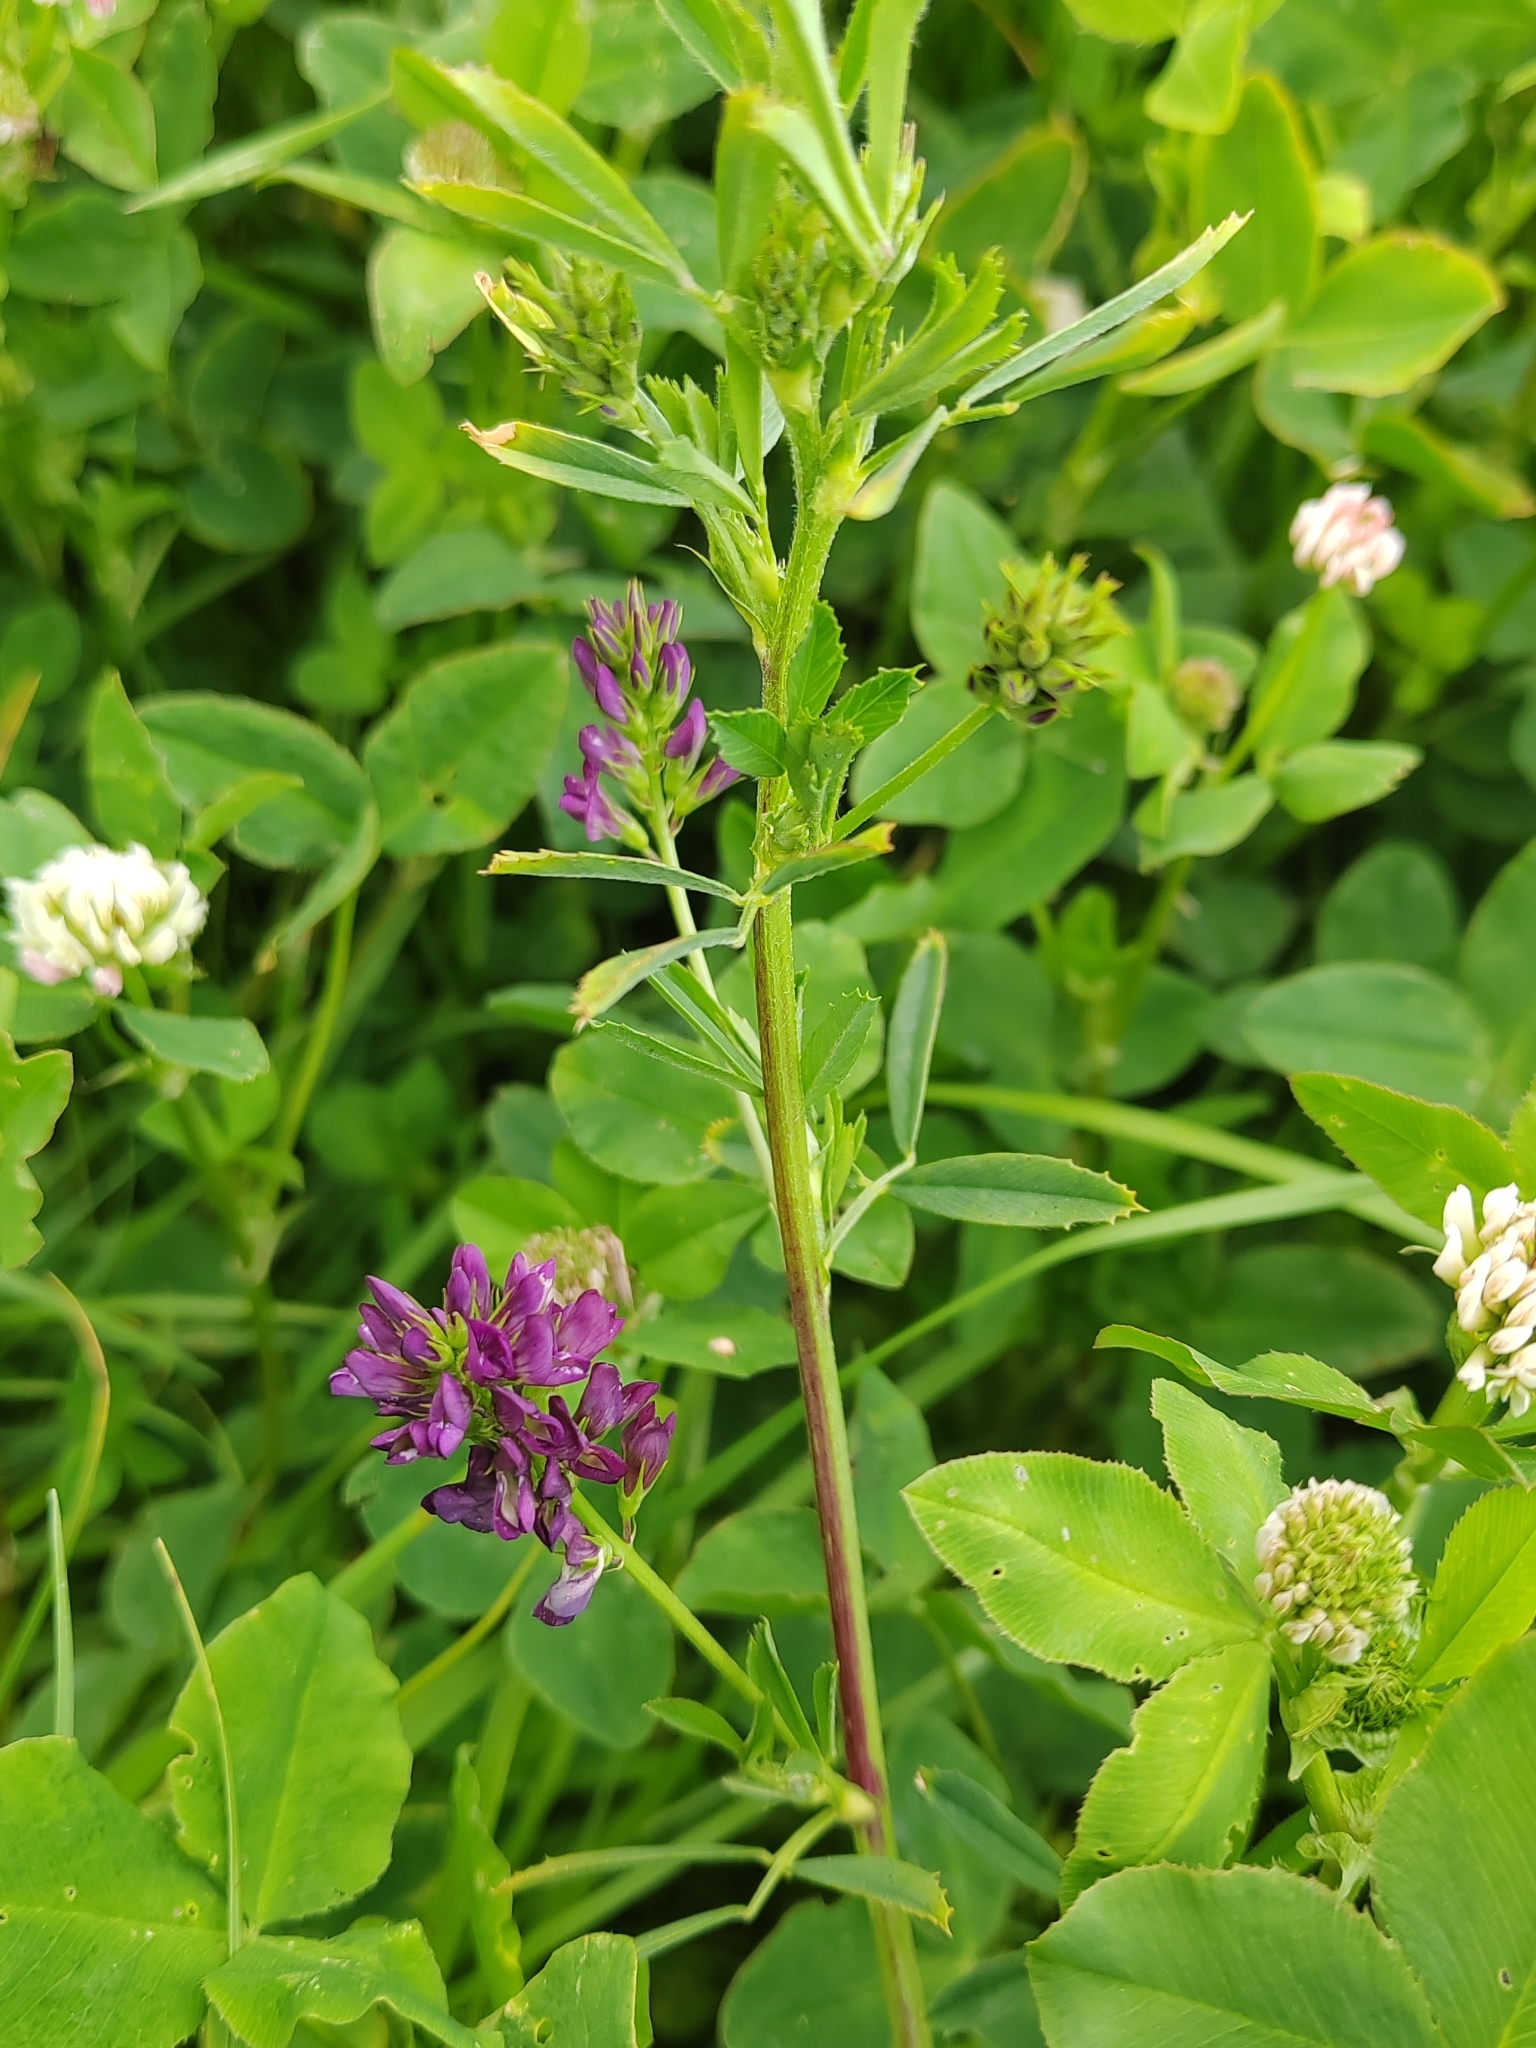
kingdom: Plantae
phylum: Tracheophyta
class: Magnoliopsida
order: Fabales
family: Fabaceae
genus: Medicago
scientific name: Medicago varia
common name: Sand lucerne
